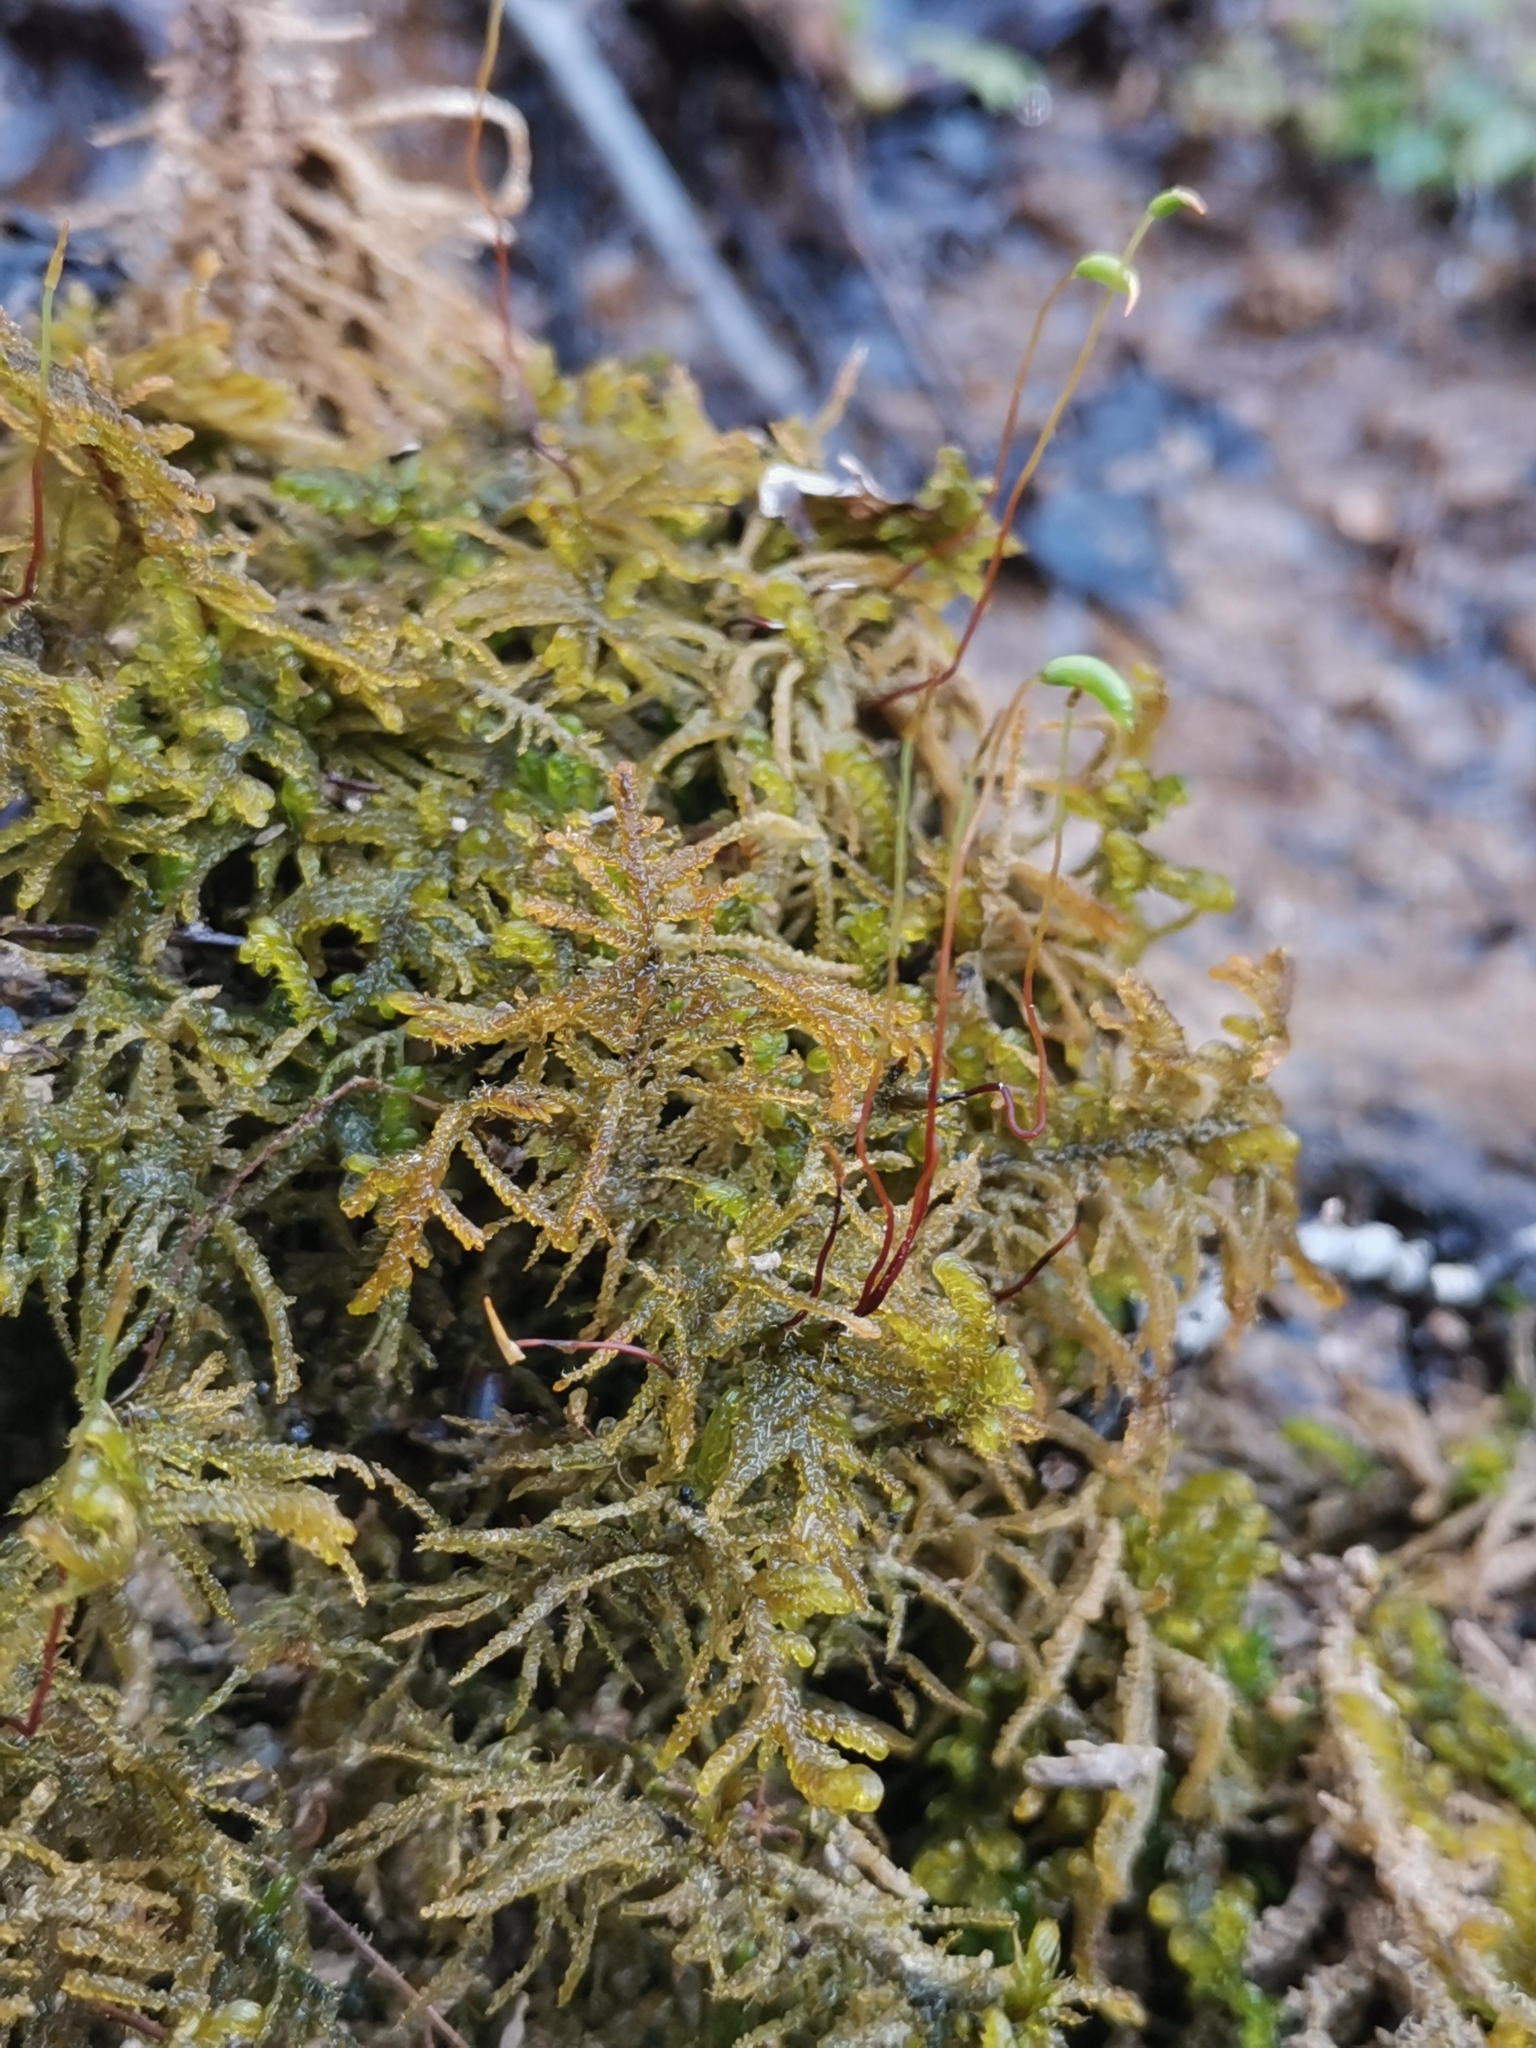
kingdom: Plantae
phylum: Bryophyta
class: Bryopsida
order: Hypnales
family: Amblystegiaceae
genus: Palustriella
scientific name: Palustriella commutata
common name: Curled hook-moss
